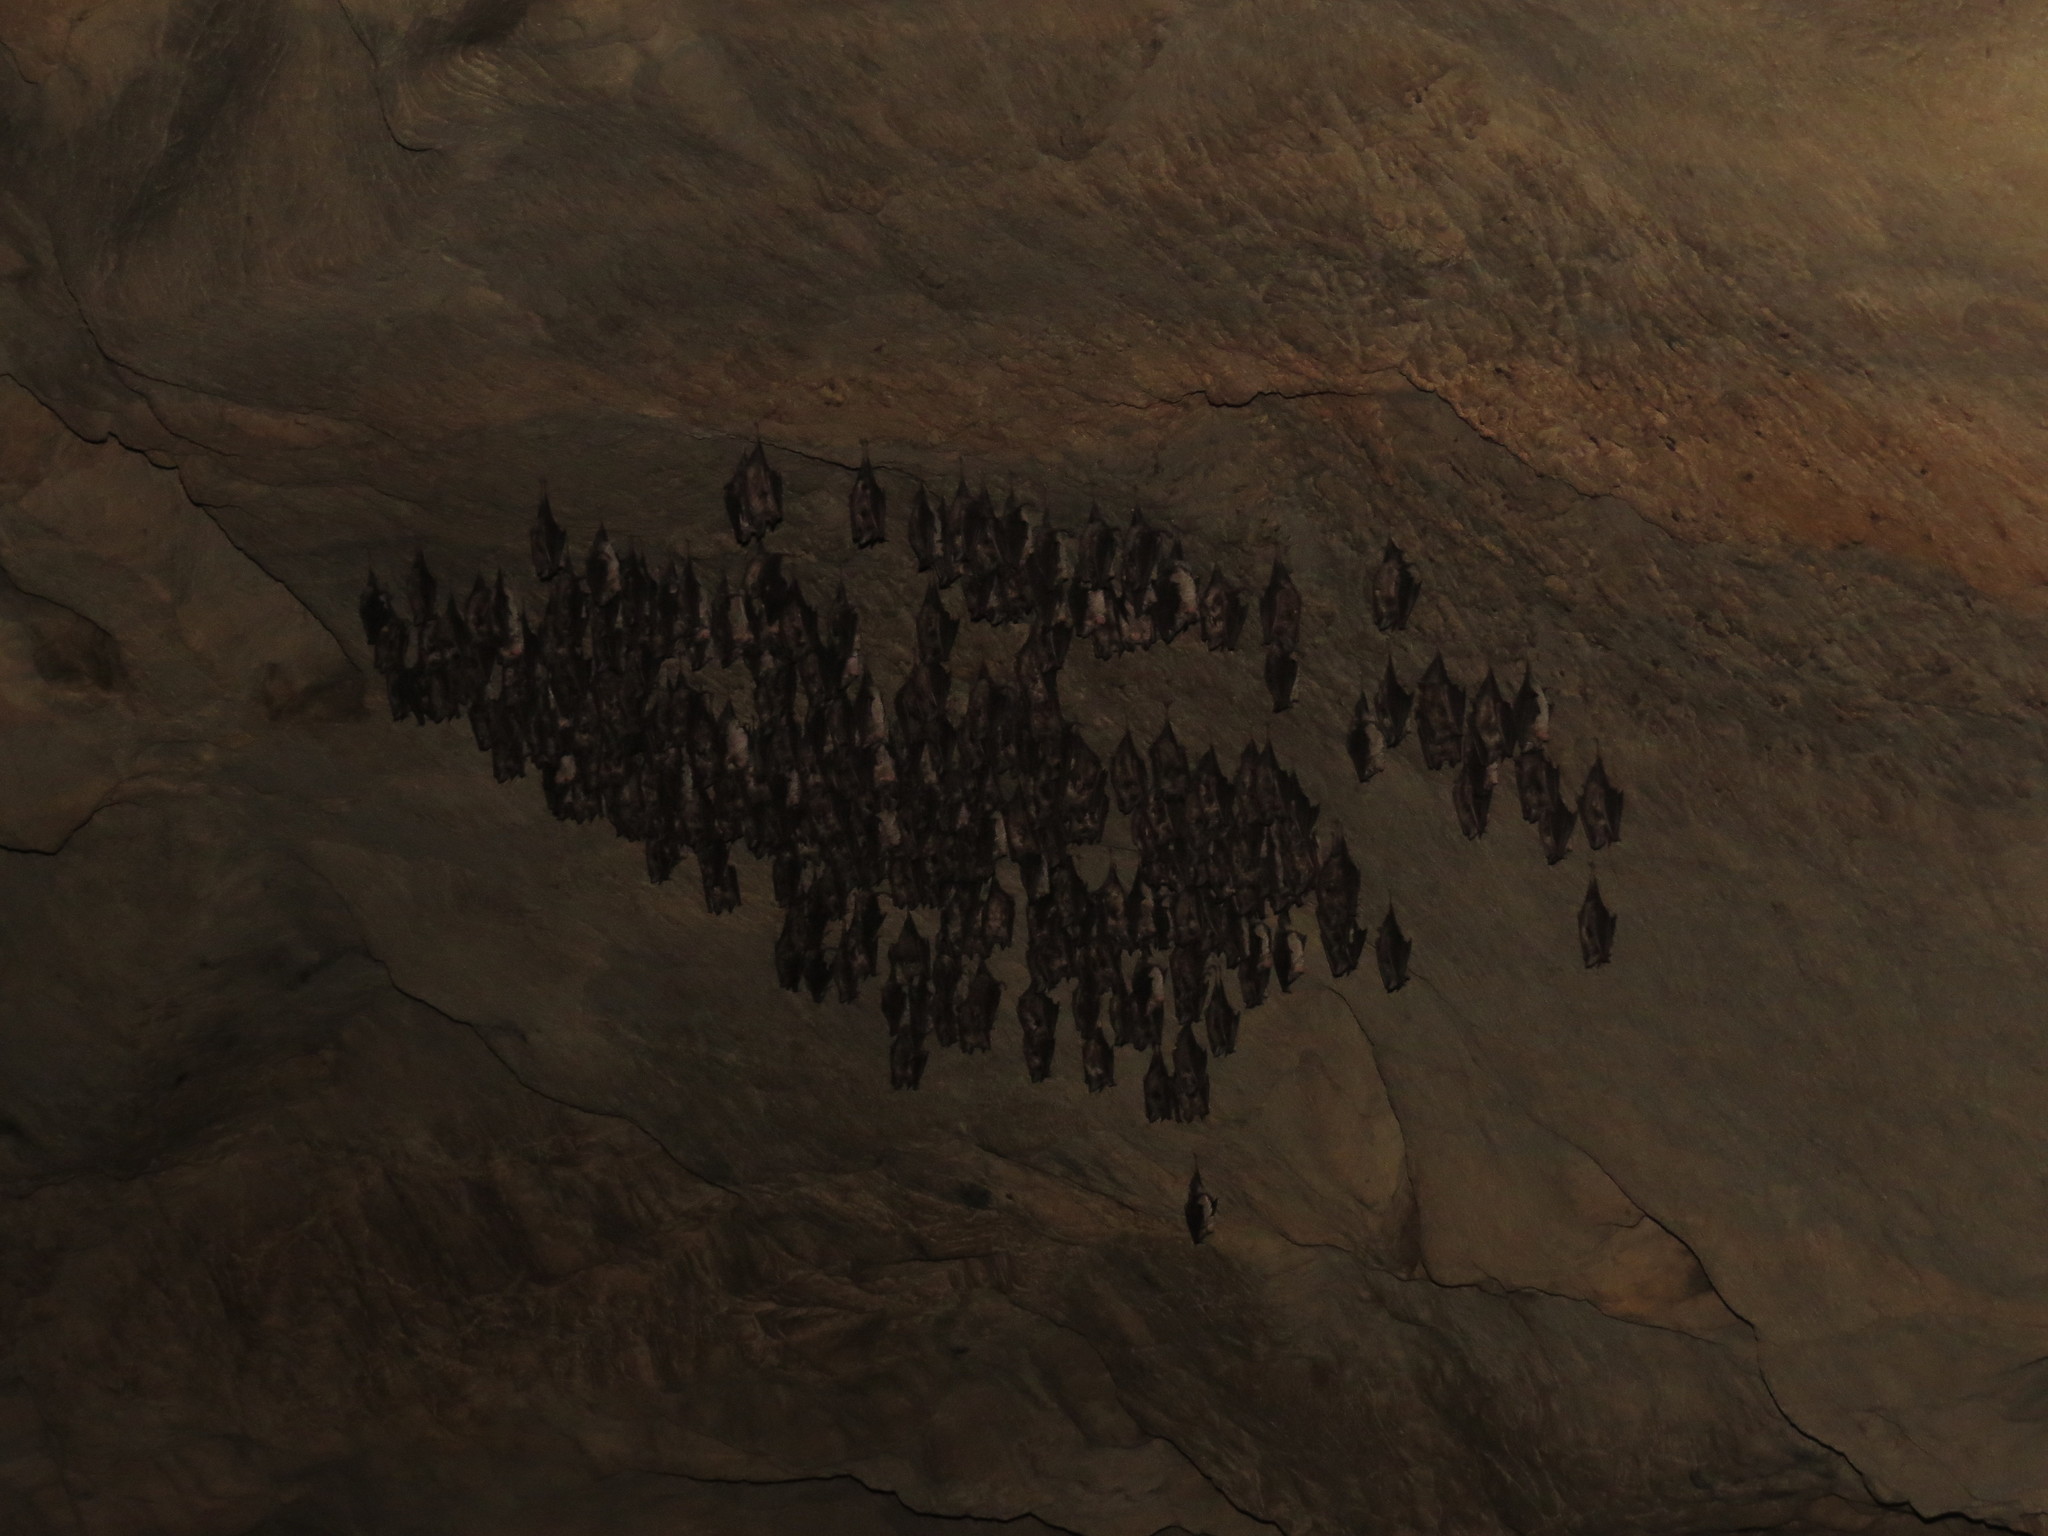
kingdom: Animalia
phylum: Chordata
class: Mammalia
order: Chiroptera
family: Rhinolophidae
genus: Rhinolophus
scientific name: Rhinolophus euryale
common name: Mediterranean horseshoe bat
